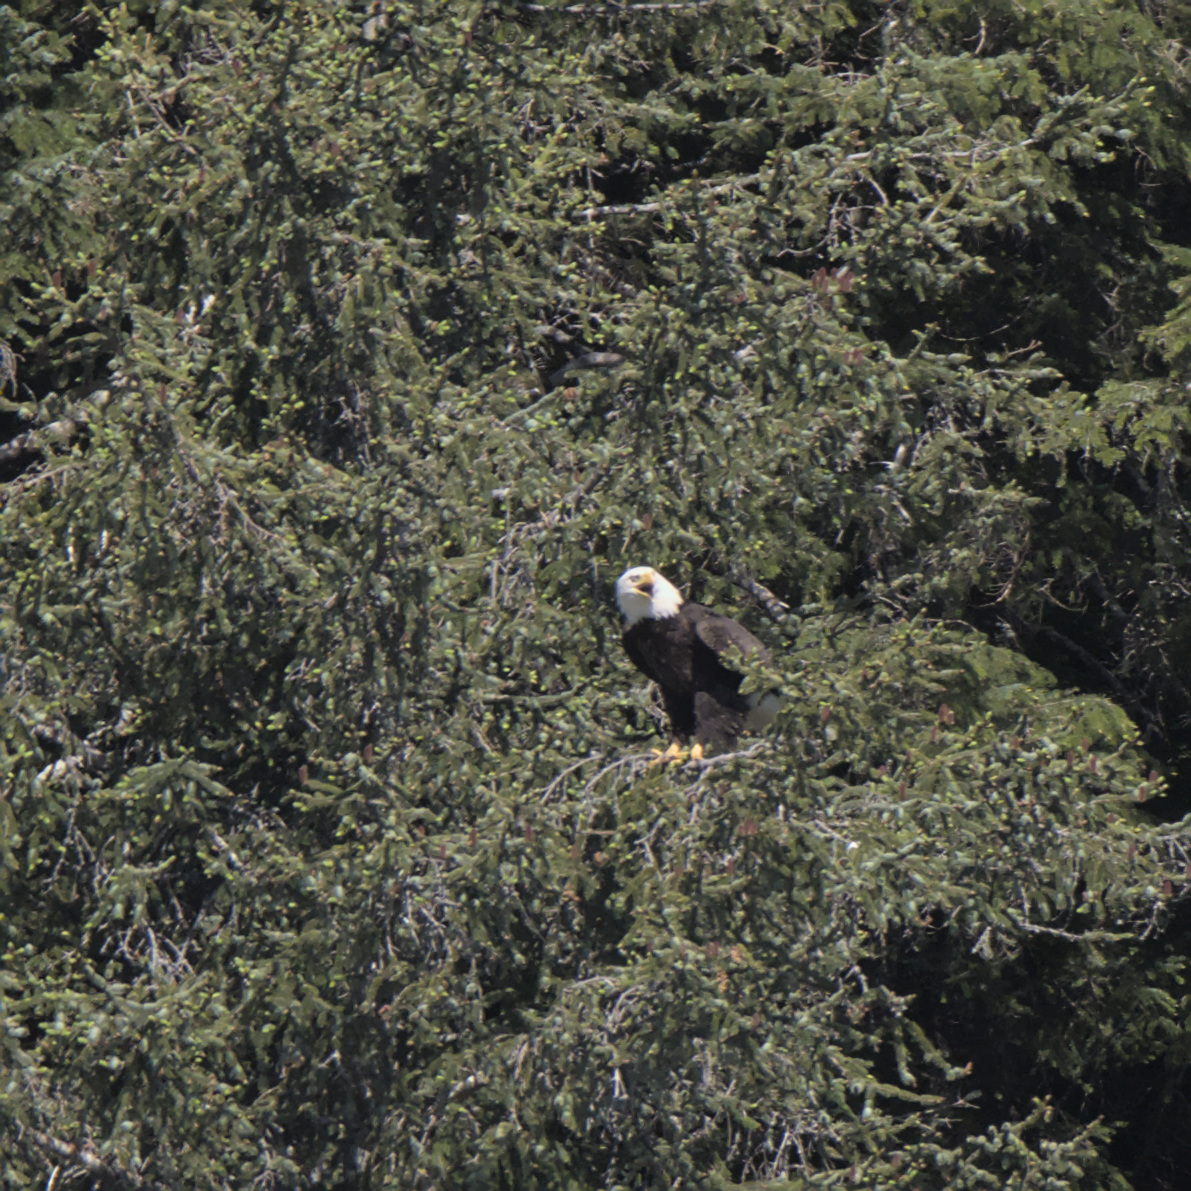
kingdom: Animalia
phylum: Chordata
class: Aves
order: Accipitriformes
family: Accipitridae
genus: Haliaeetus
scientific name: Haliaeetus leucocephalus
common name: Bald eagle
